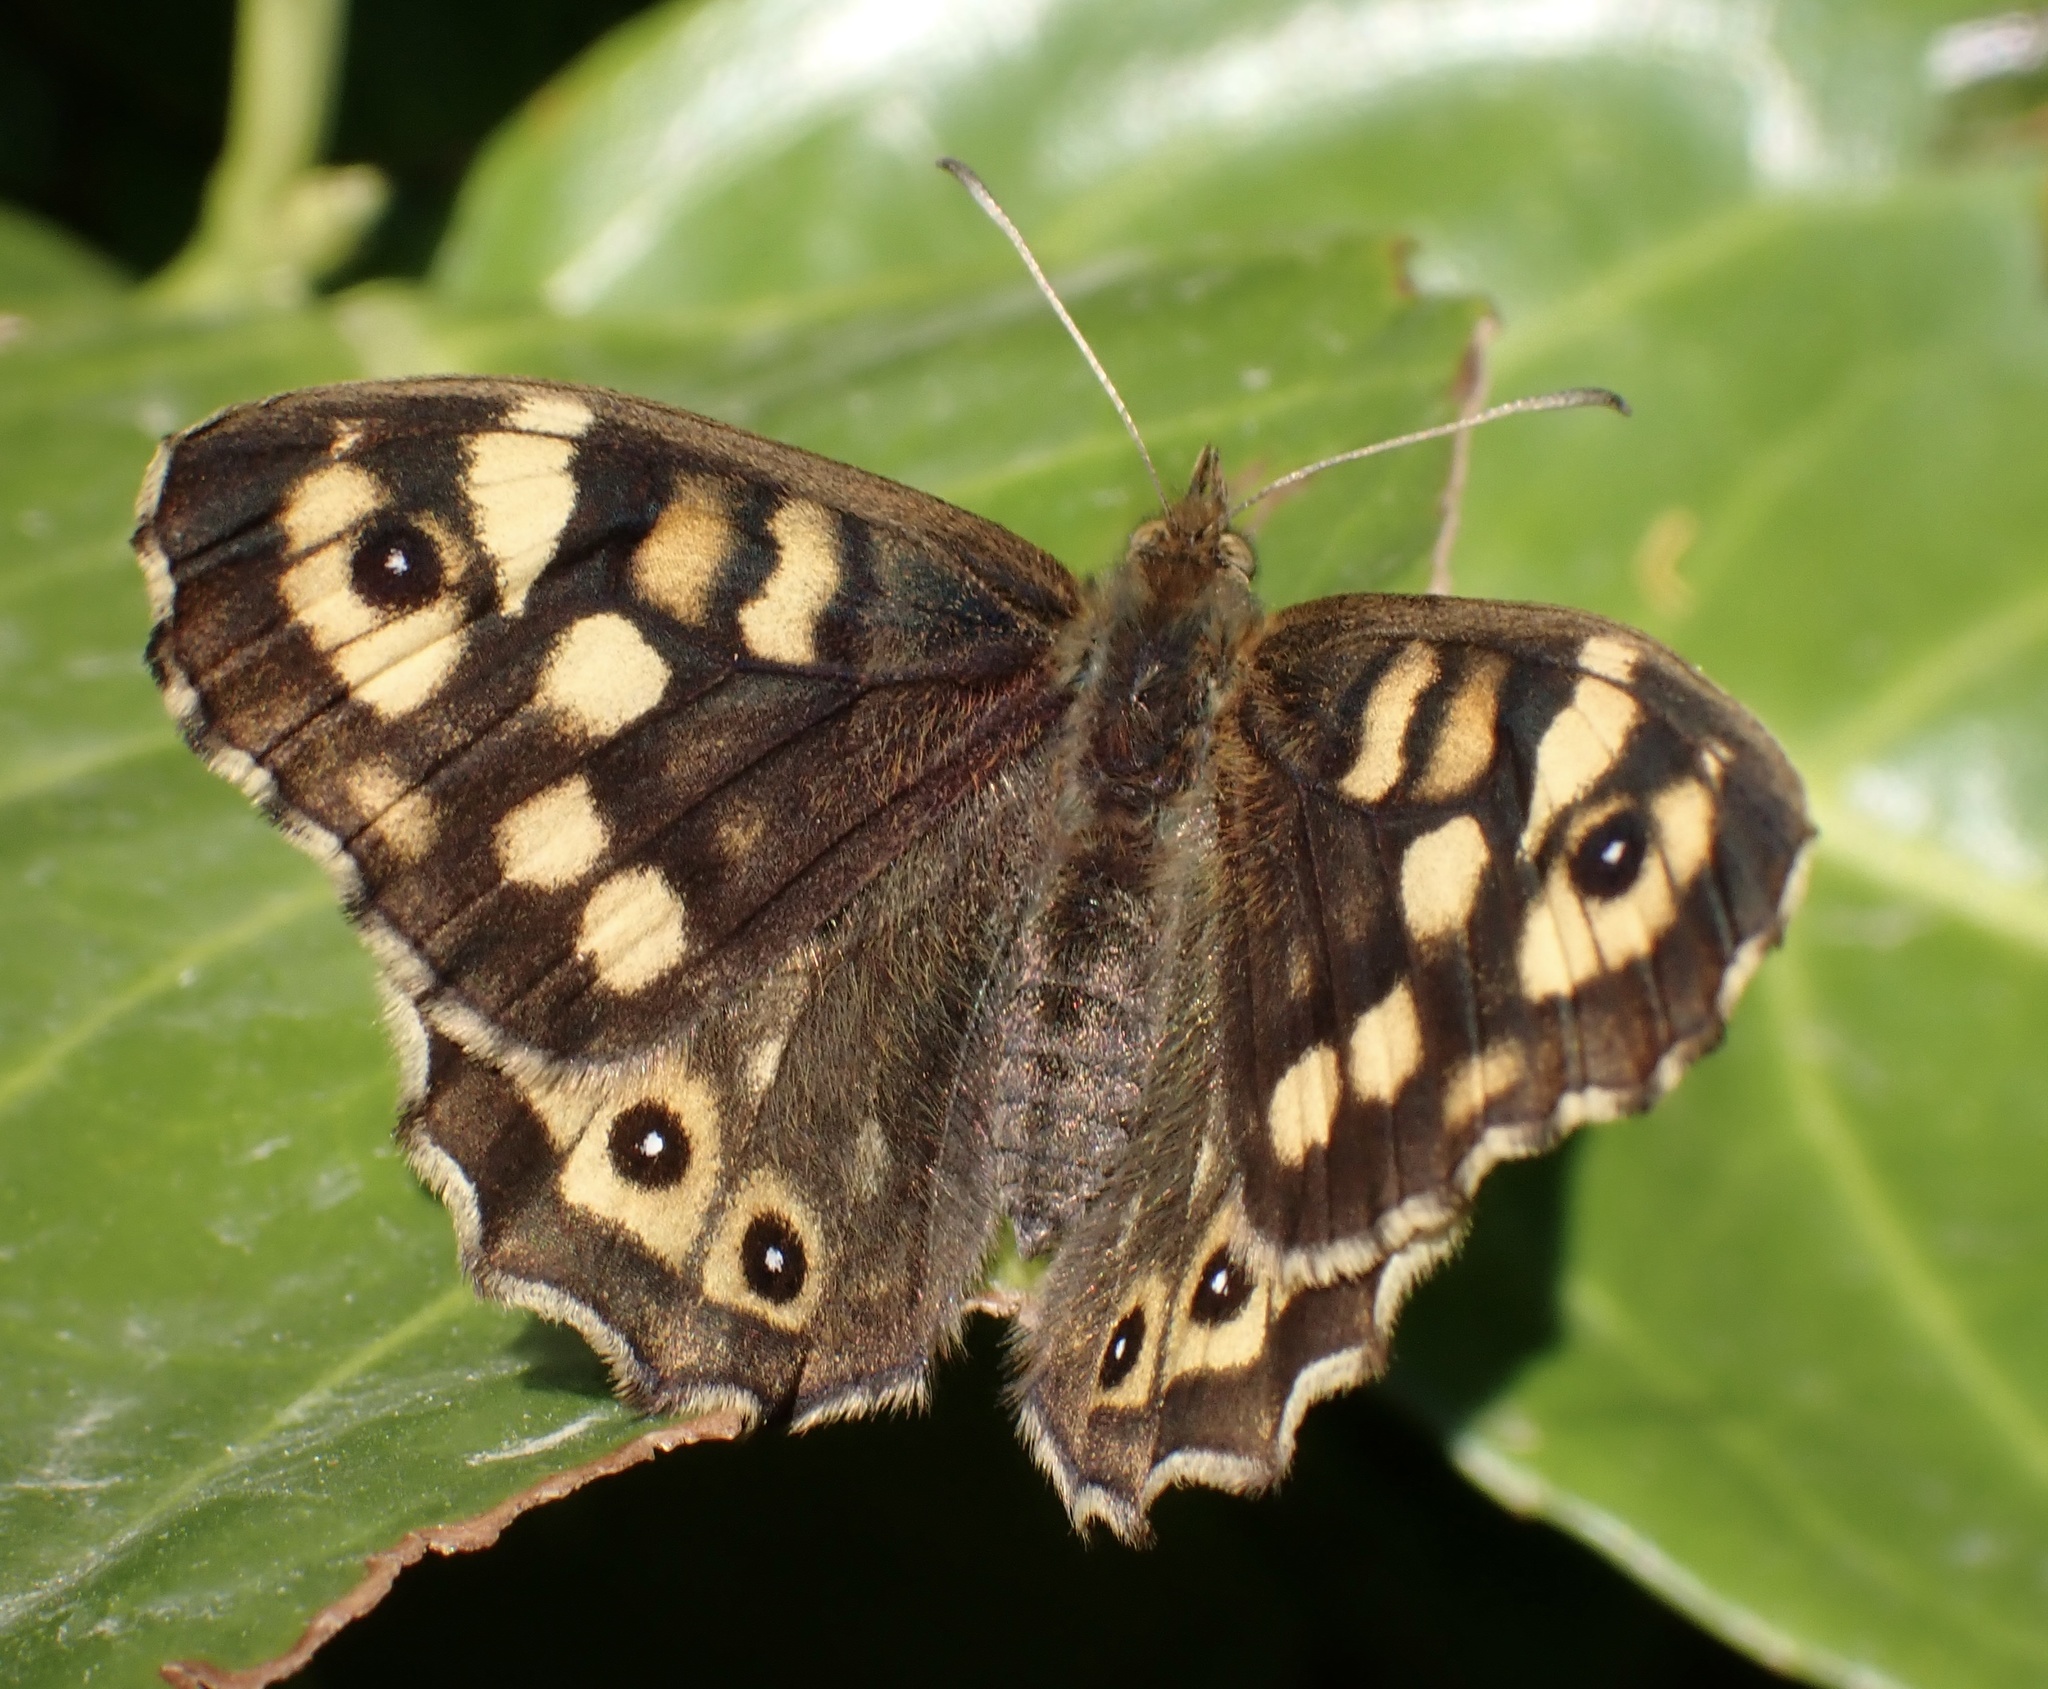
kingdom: Animalia
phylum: Arthropoda
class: Insecta
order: Lepidoptera
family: Nymphalidae
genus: Pararge
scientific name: Pararge aegeria
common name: Speckled wood
